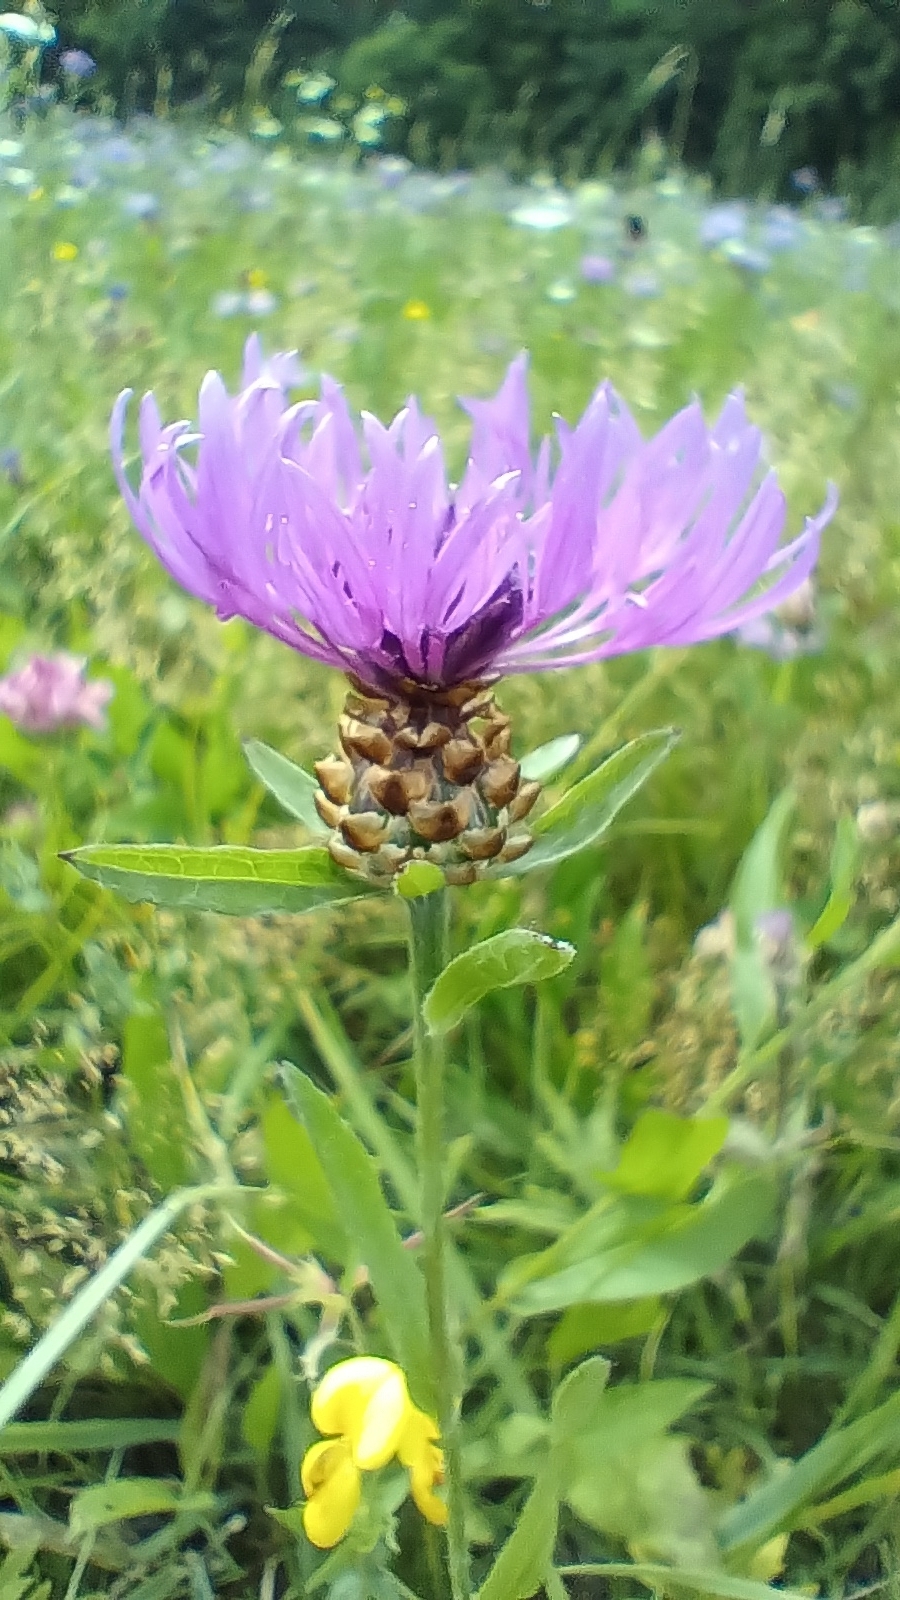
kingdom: Plantae
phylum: Tracheophyta
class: Magnoliopsida
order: Asterales
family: Asteraceae
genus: Centaurea
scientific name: Centaurea jacea
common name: Brown knapweed
